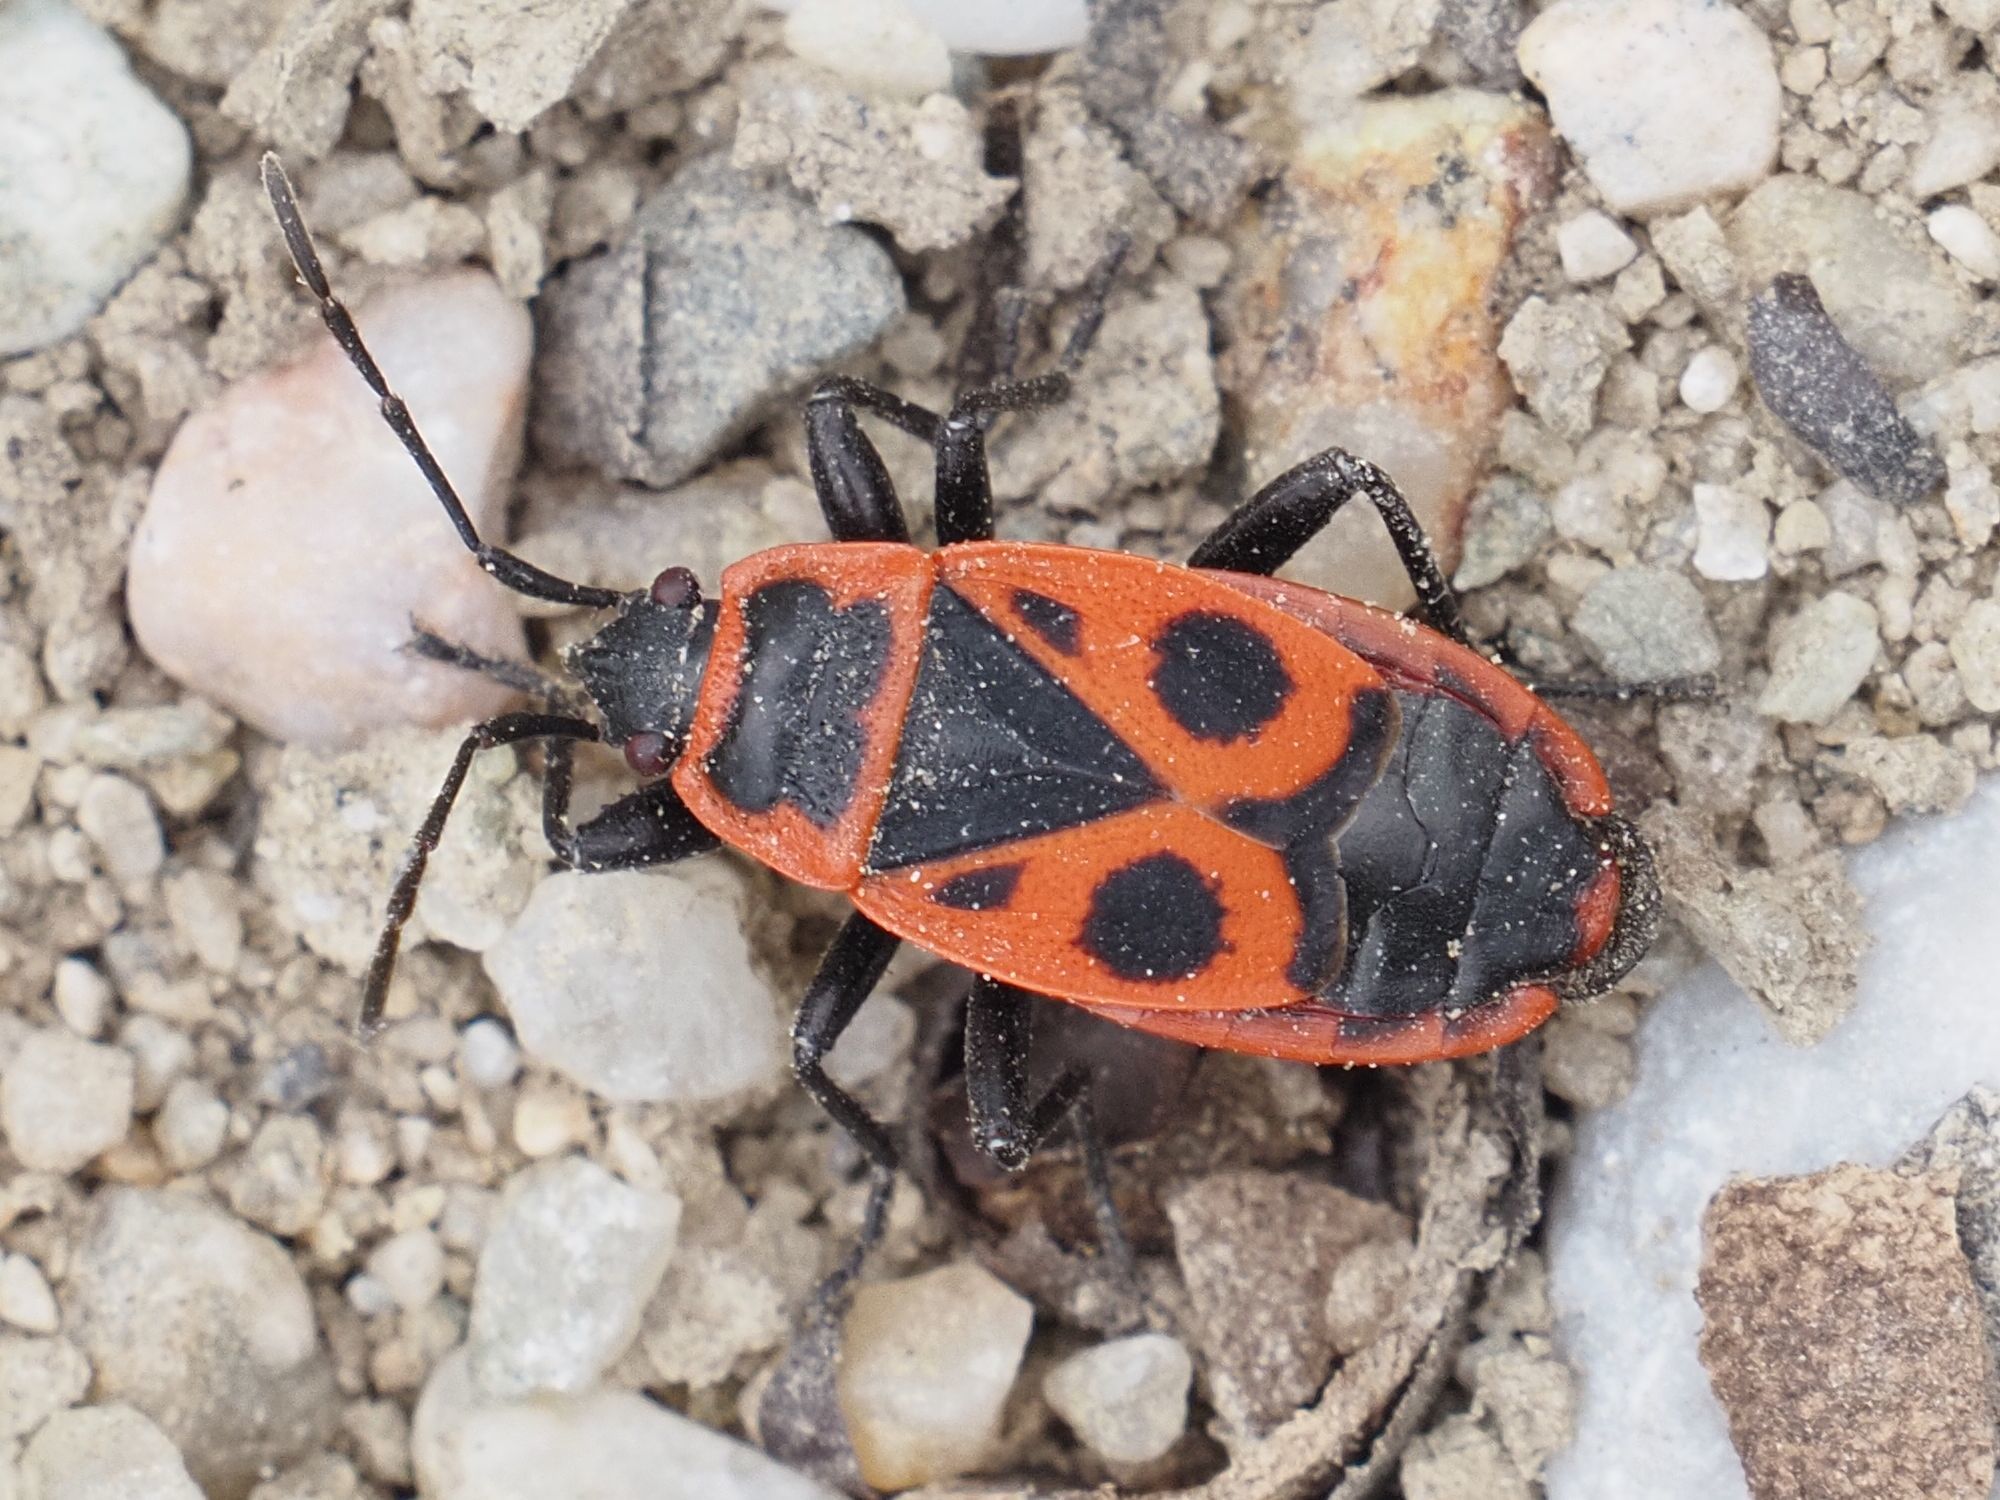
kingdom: Animalia
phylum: Arthropoda
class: Insecta
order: Hemiptera
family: Pyrrhocoridae
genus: Pyrrhocoris
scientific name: Pyrrhocoris apterus
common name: Firebug
